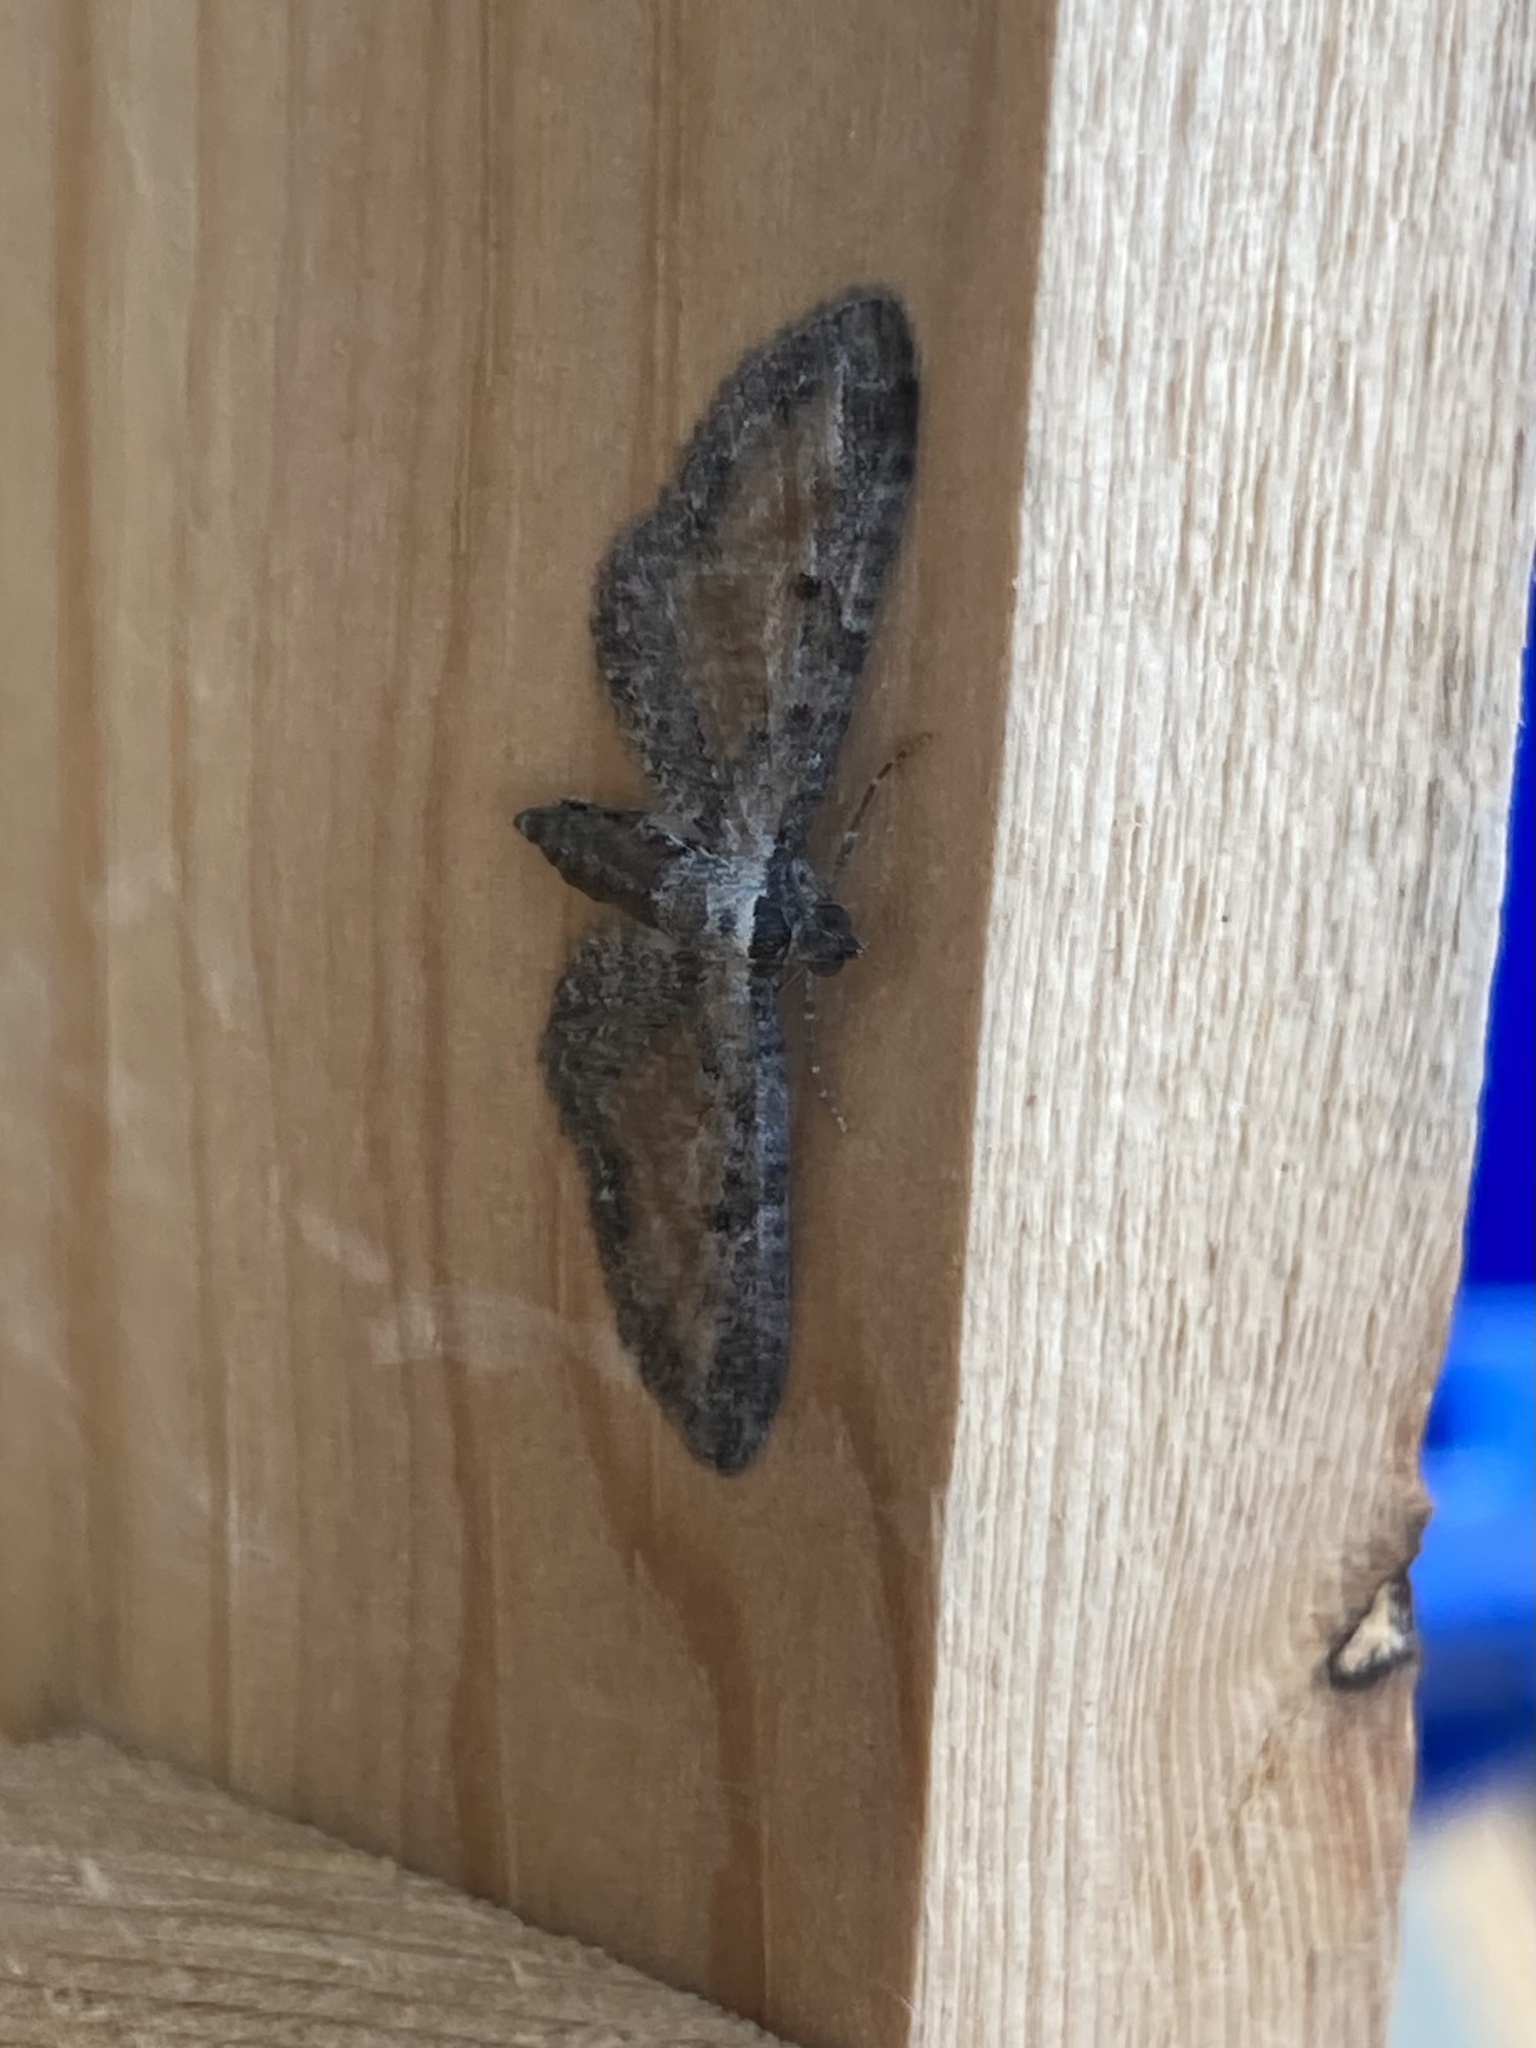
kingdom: Animalia
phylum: Arthropoda
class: Insecta
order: Lepidoptera
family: Geometridae
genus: Eupithecia
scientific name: Eupithecia icterata
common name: Tawny speckled pug
